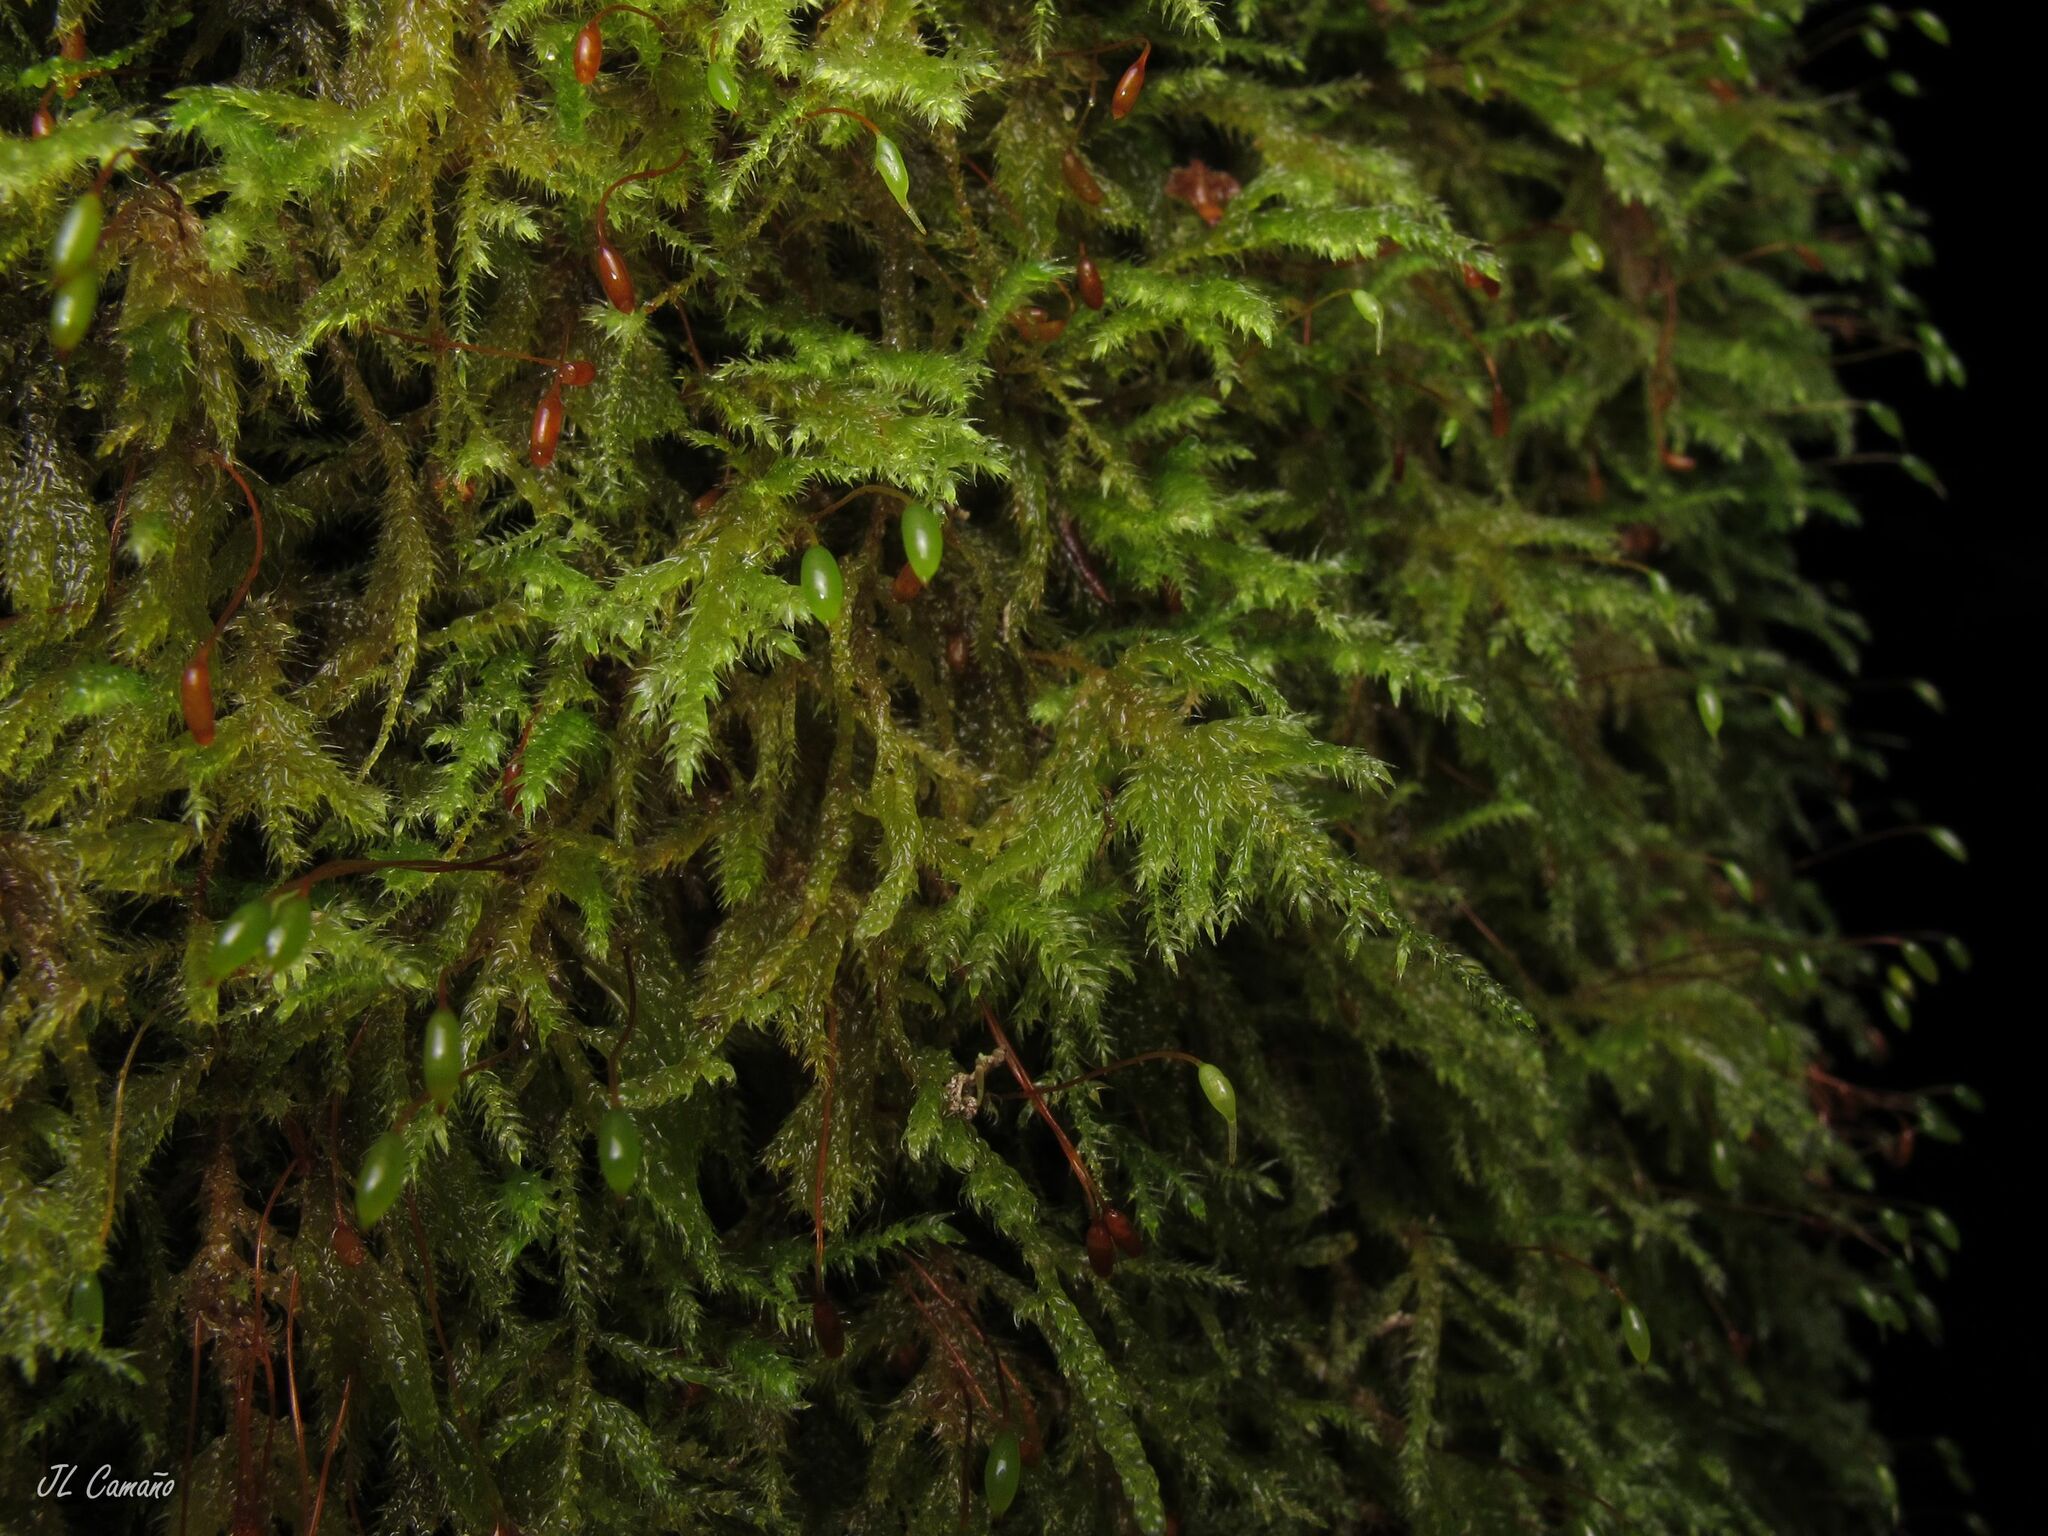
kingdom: Plantae
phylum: Bryophyta
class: Bryopsida
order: Hypnales
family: Lembophyllaceae
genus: Pseudisothecium
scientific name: Pseudisothecium myosuroides
